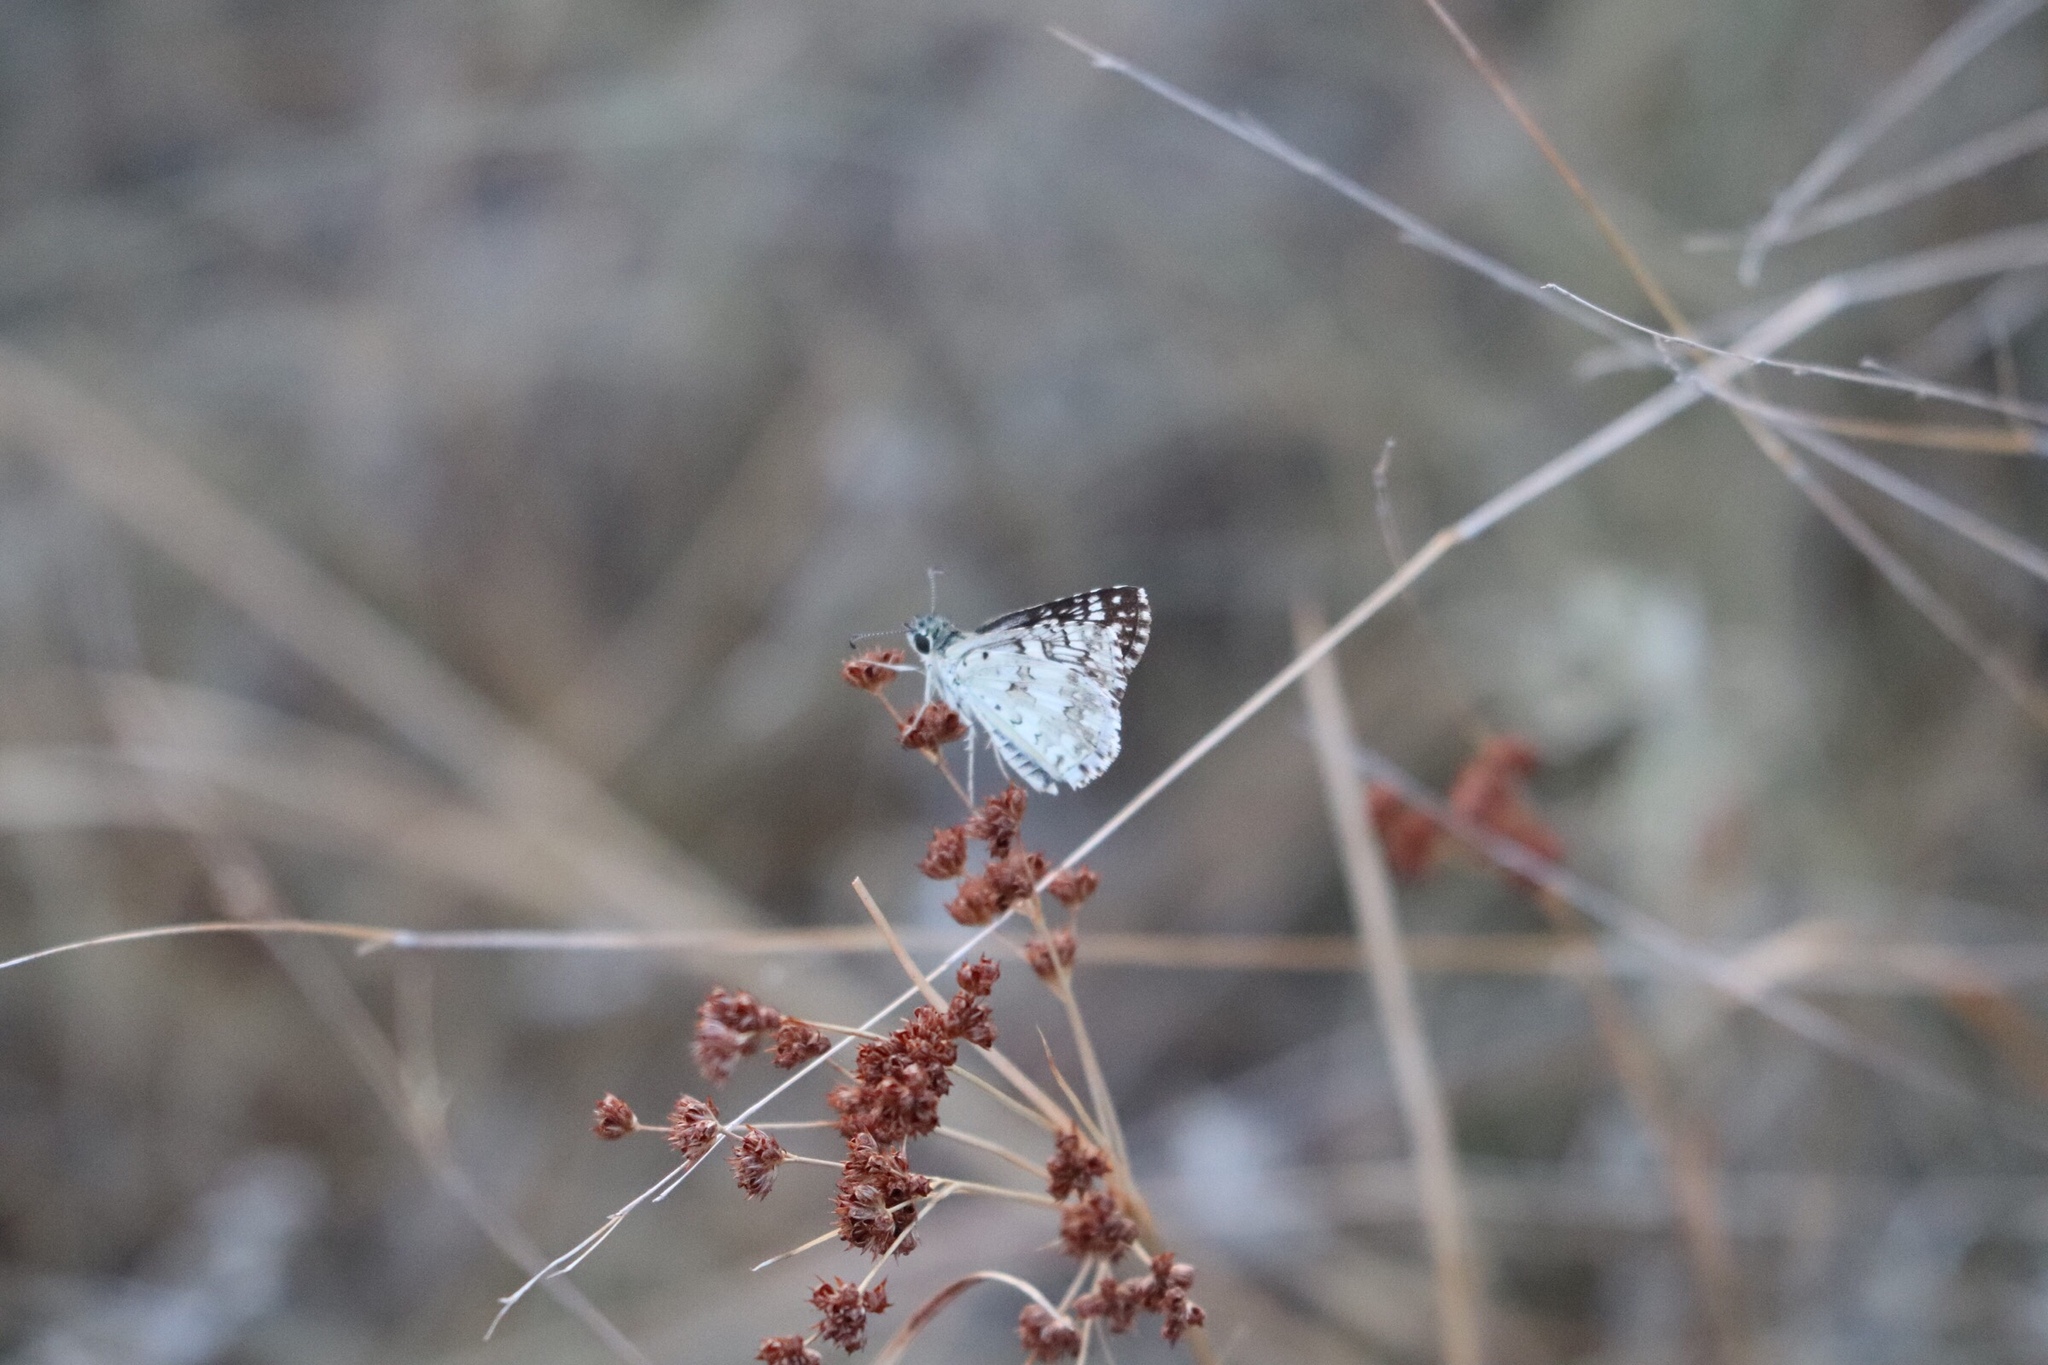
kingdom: Animalia
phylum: Arthropoda
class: Insecta
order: Lepidoptera
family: Hesperiidae
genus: Burnsius
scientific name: Burnsius communis
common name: Common checkered-skipper
